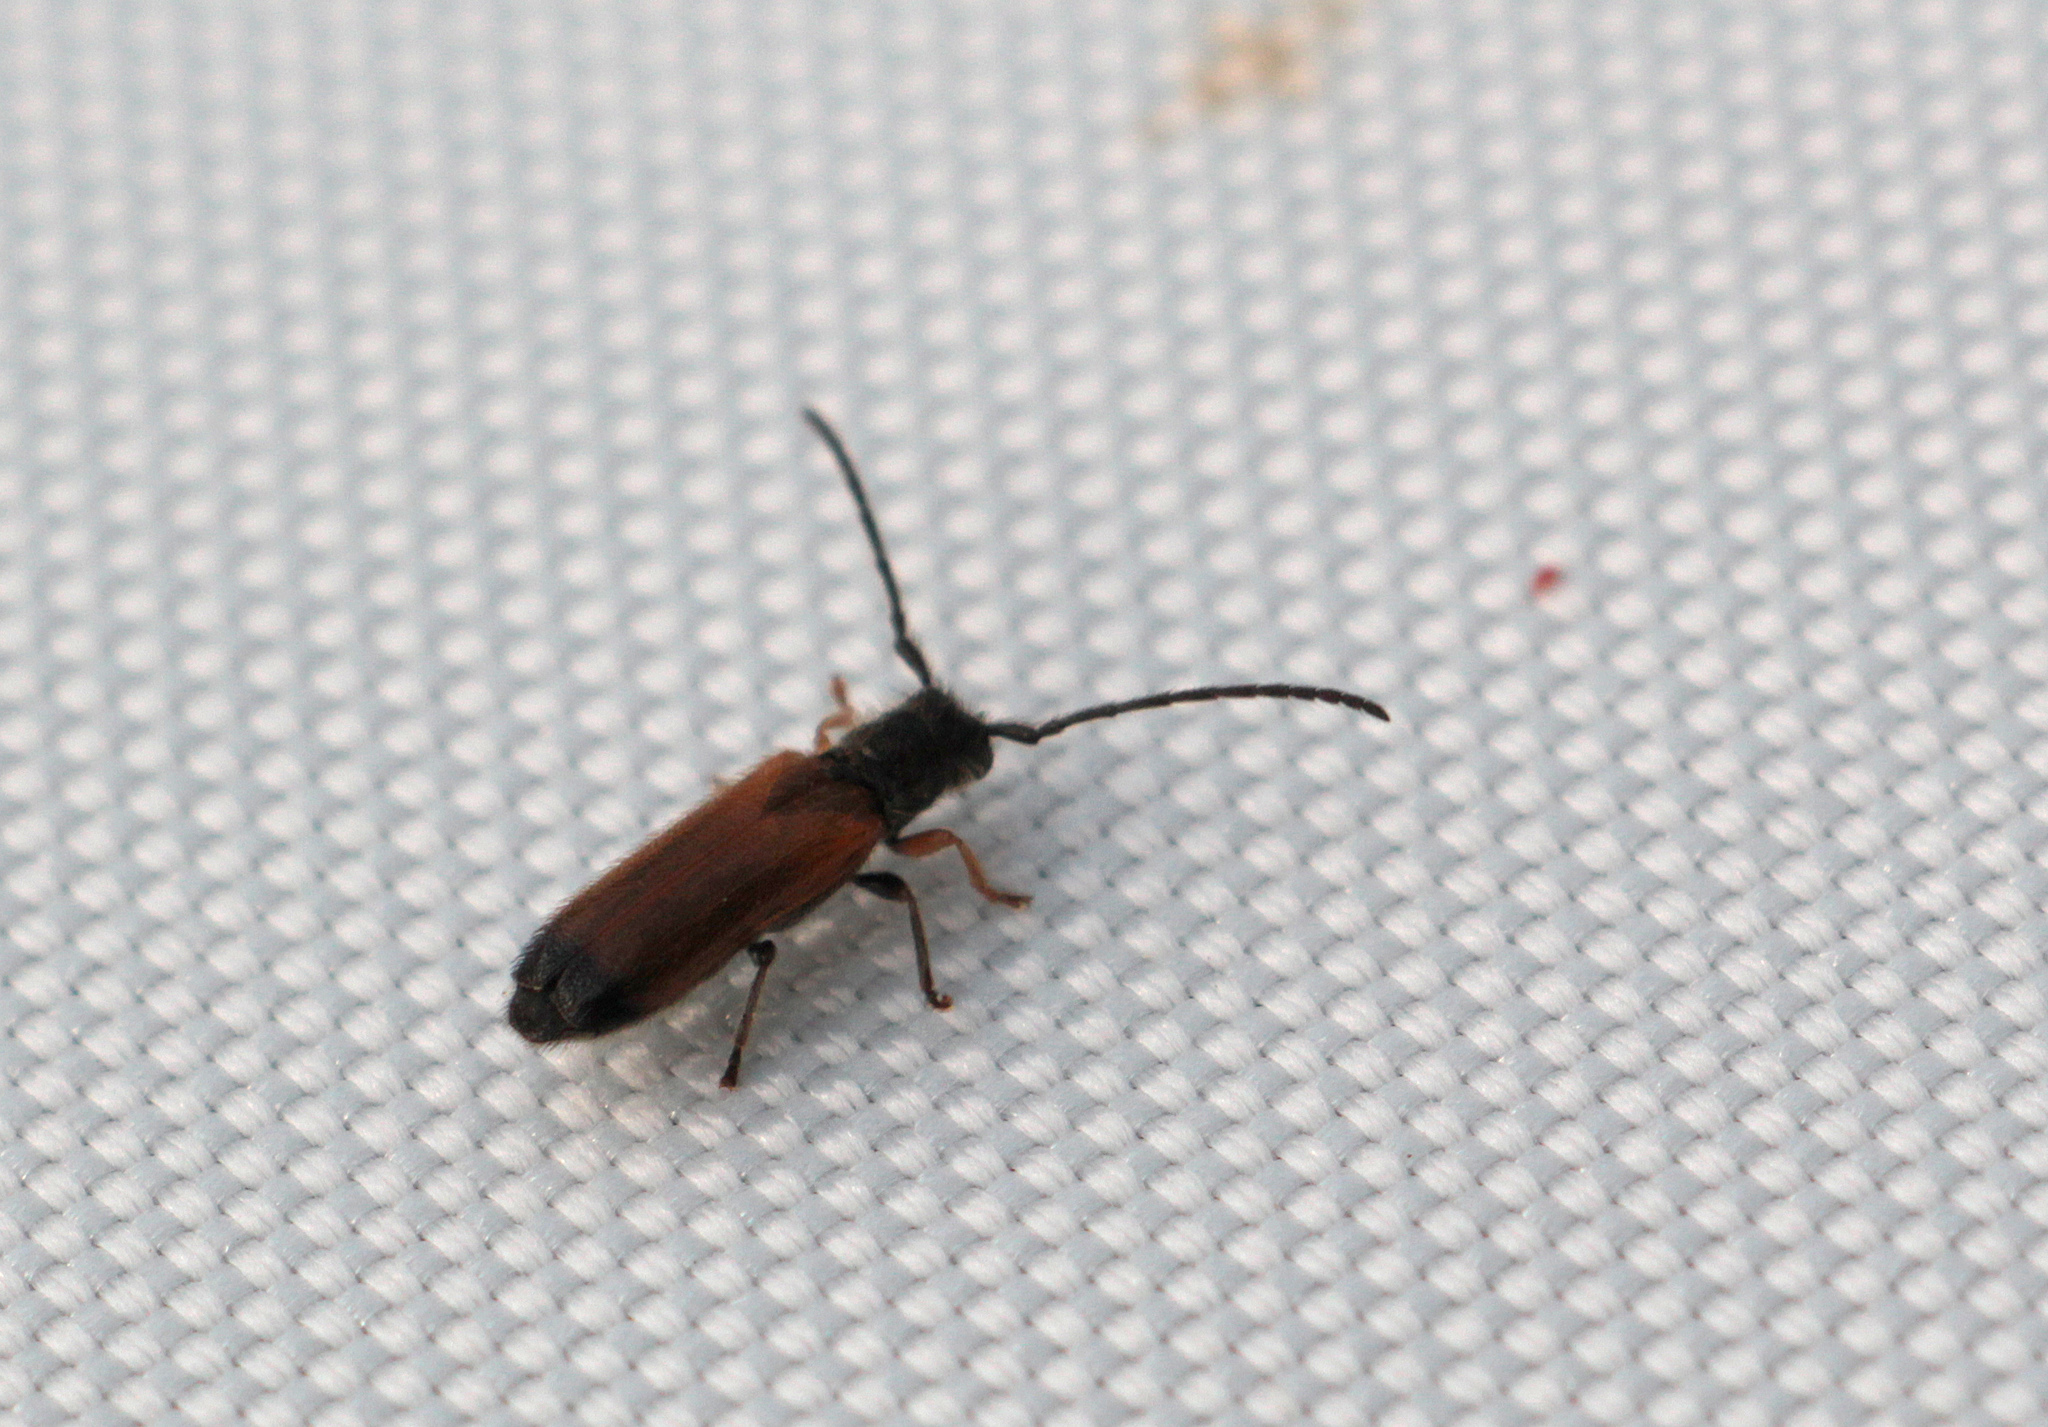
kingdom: Animalia
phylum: Arthropoda
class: Insecta
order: Coleoptera
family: Cerambycidae
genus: Tetrops
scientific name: Tetrops praeustus
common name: Plum beetle
